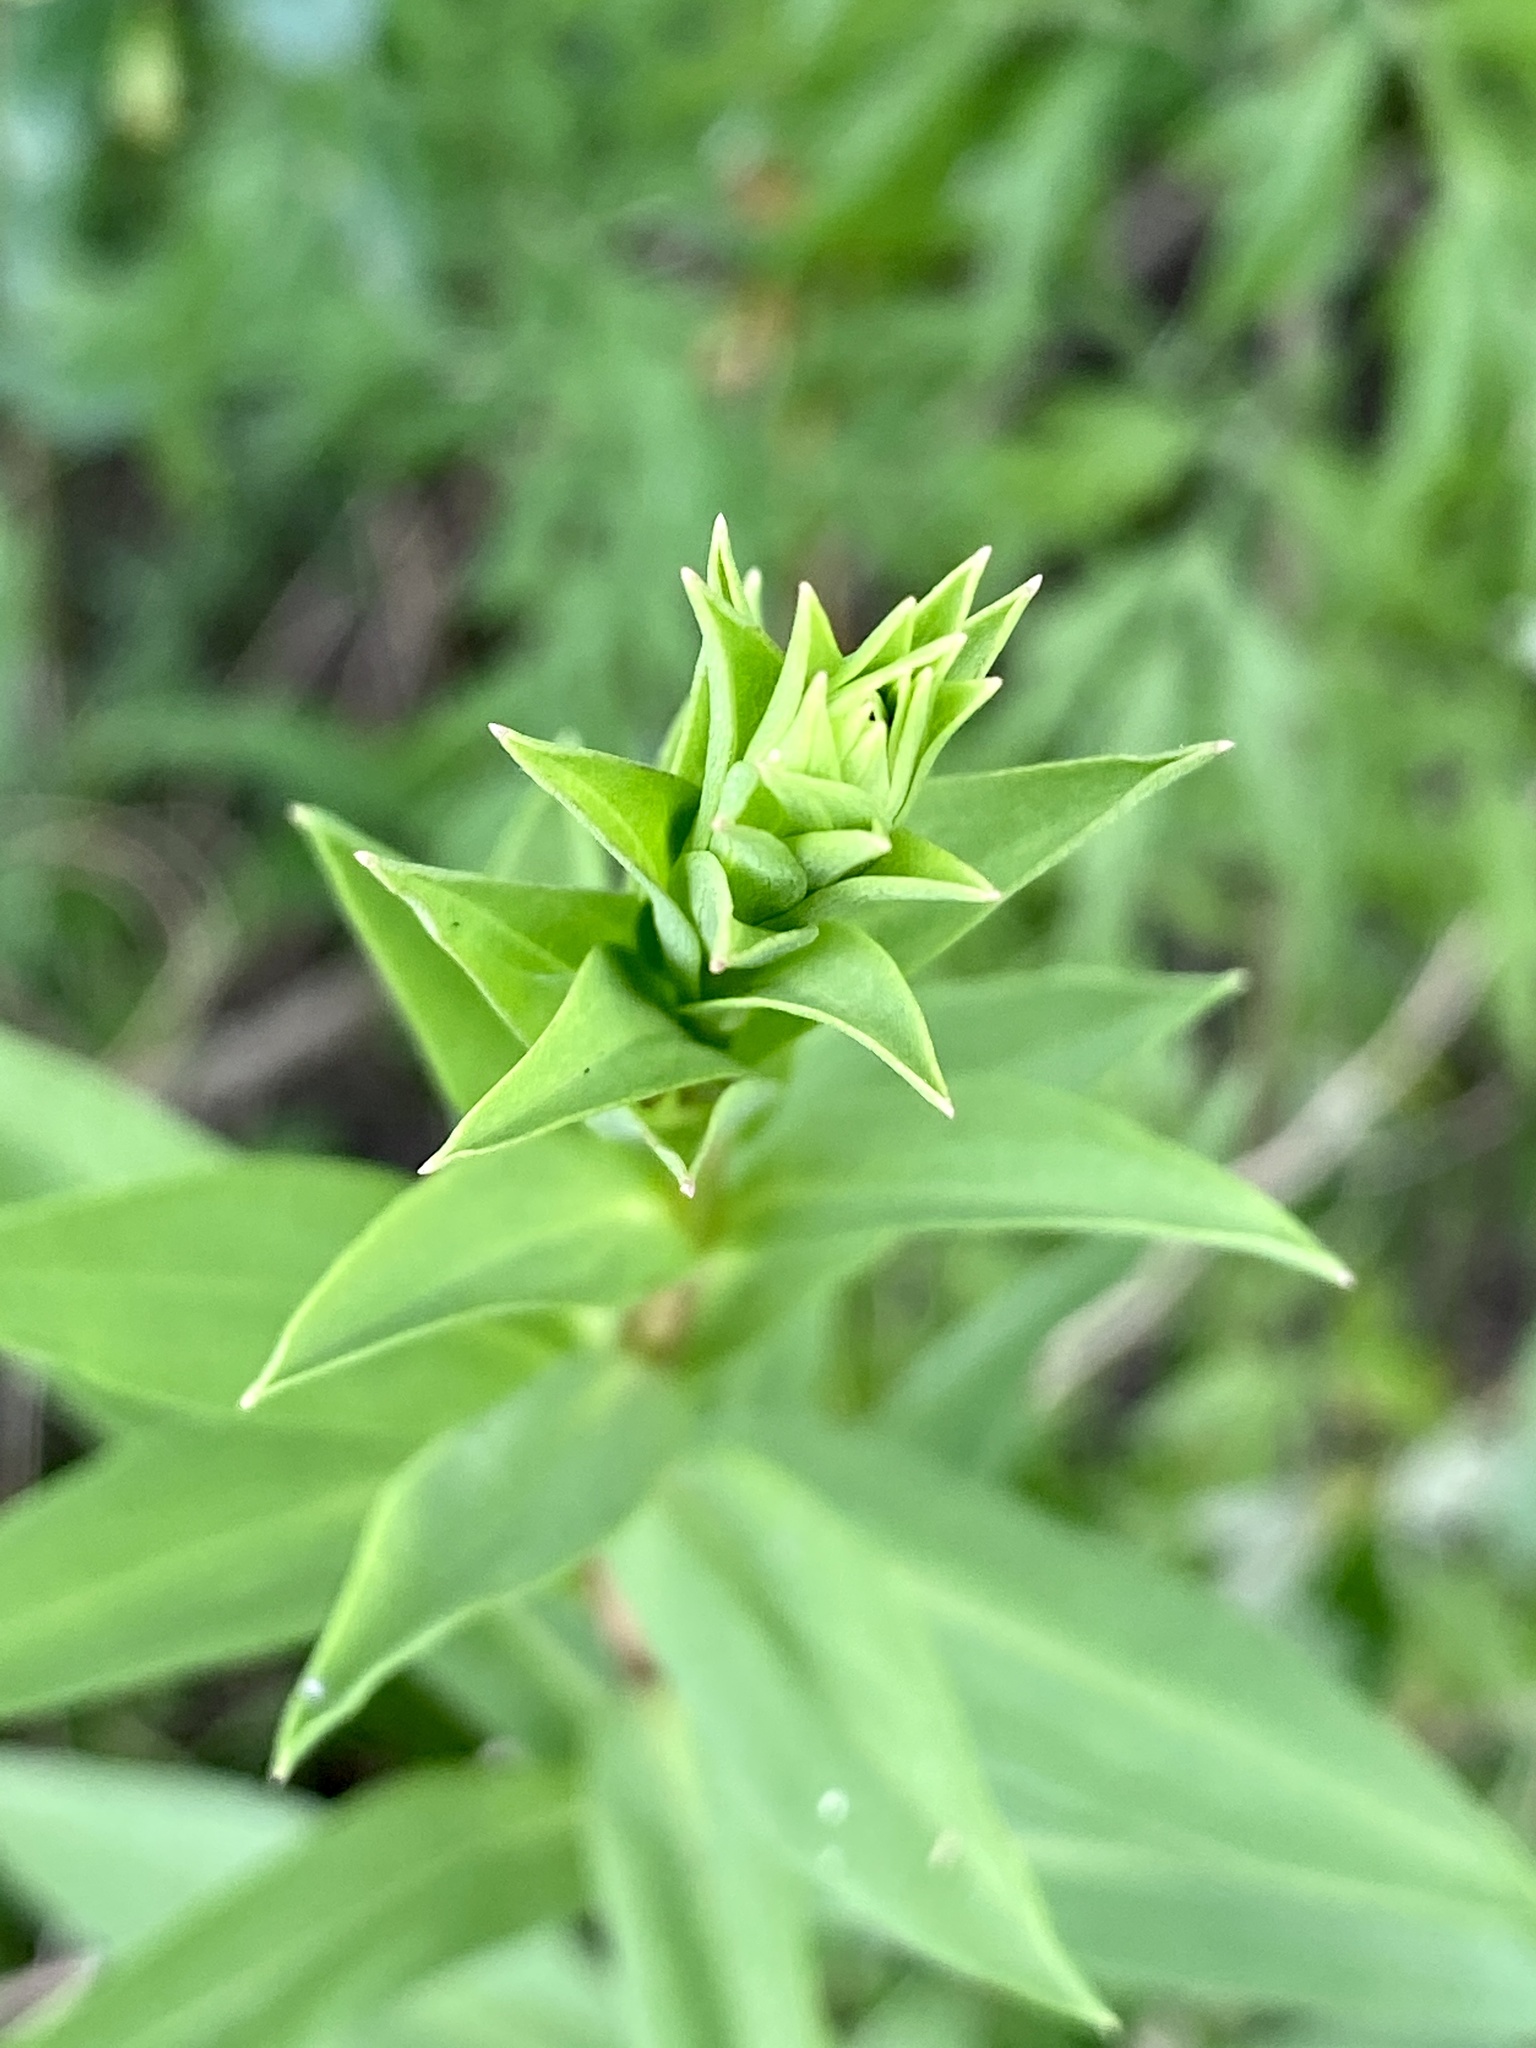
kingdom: Plantae
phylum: Tracheophyta
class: Magnoliopsida
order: Asterales
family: Asteraceae
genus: Solidago
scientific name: Solidago sempervirens
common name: Salt-marsh goldenrod
